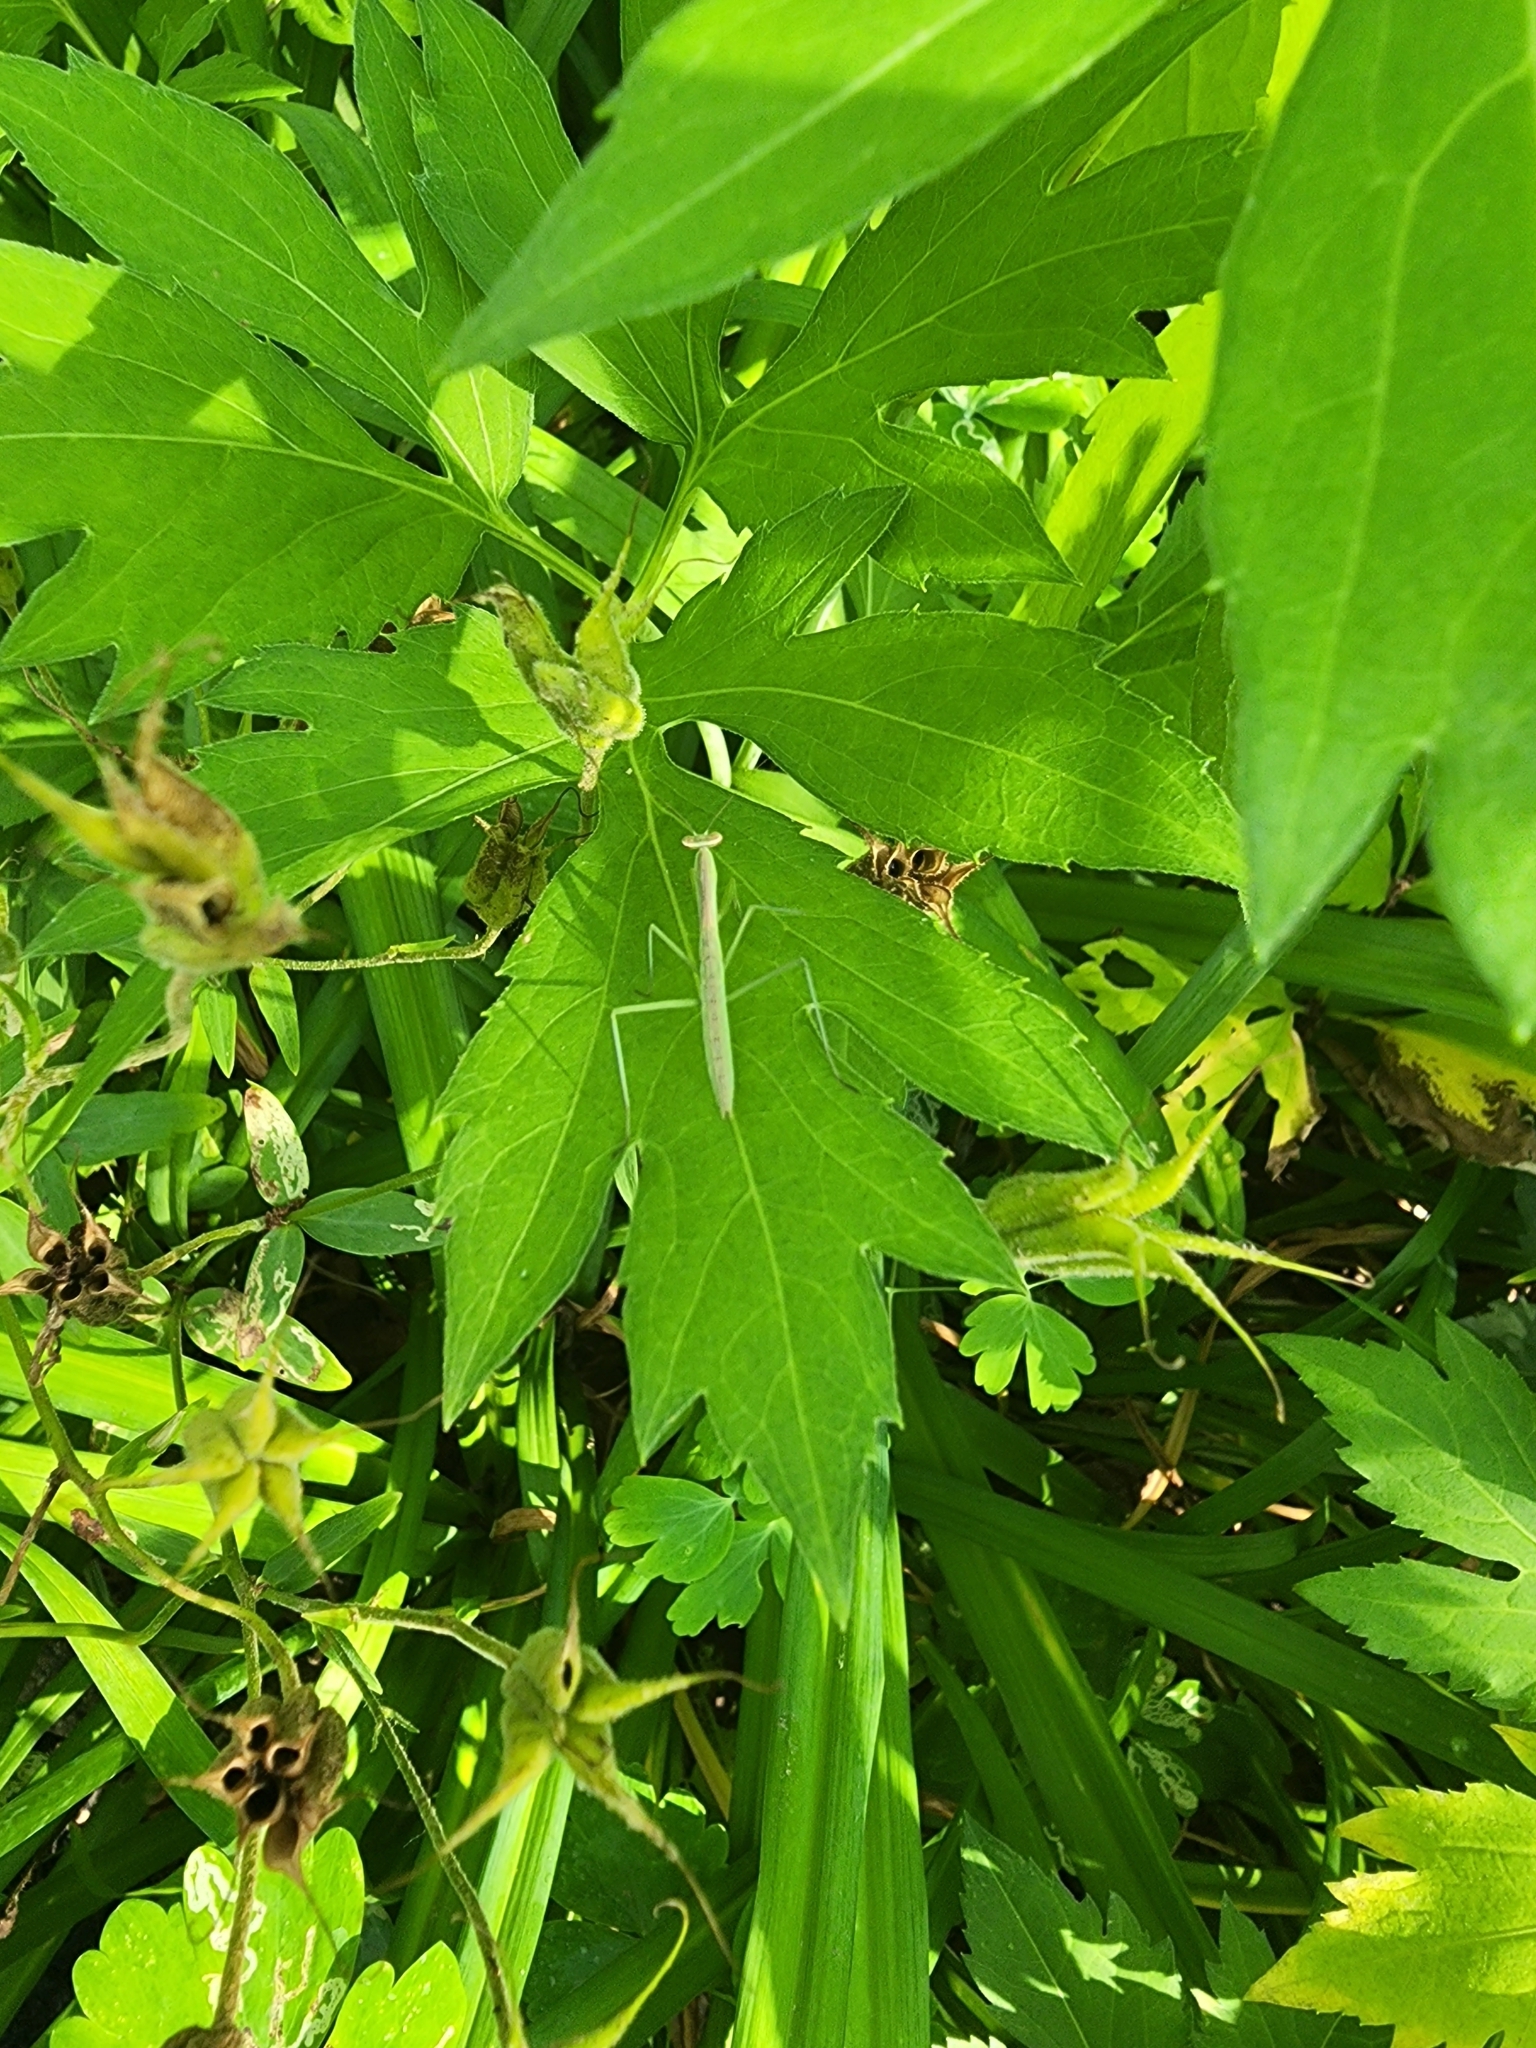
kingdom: Animalia
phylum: Arthropoda
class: Insecta
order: Mantodea
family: Mantidae
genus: Tenodera
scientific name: Tenodera sinensis
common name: Chinese mantis
